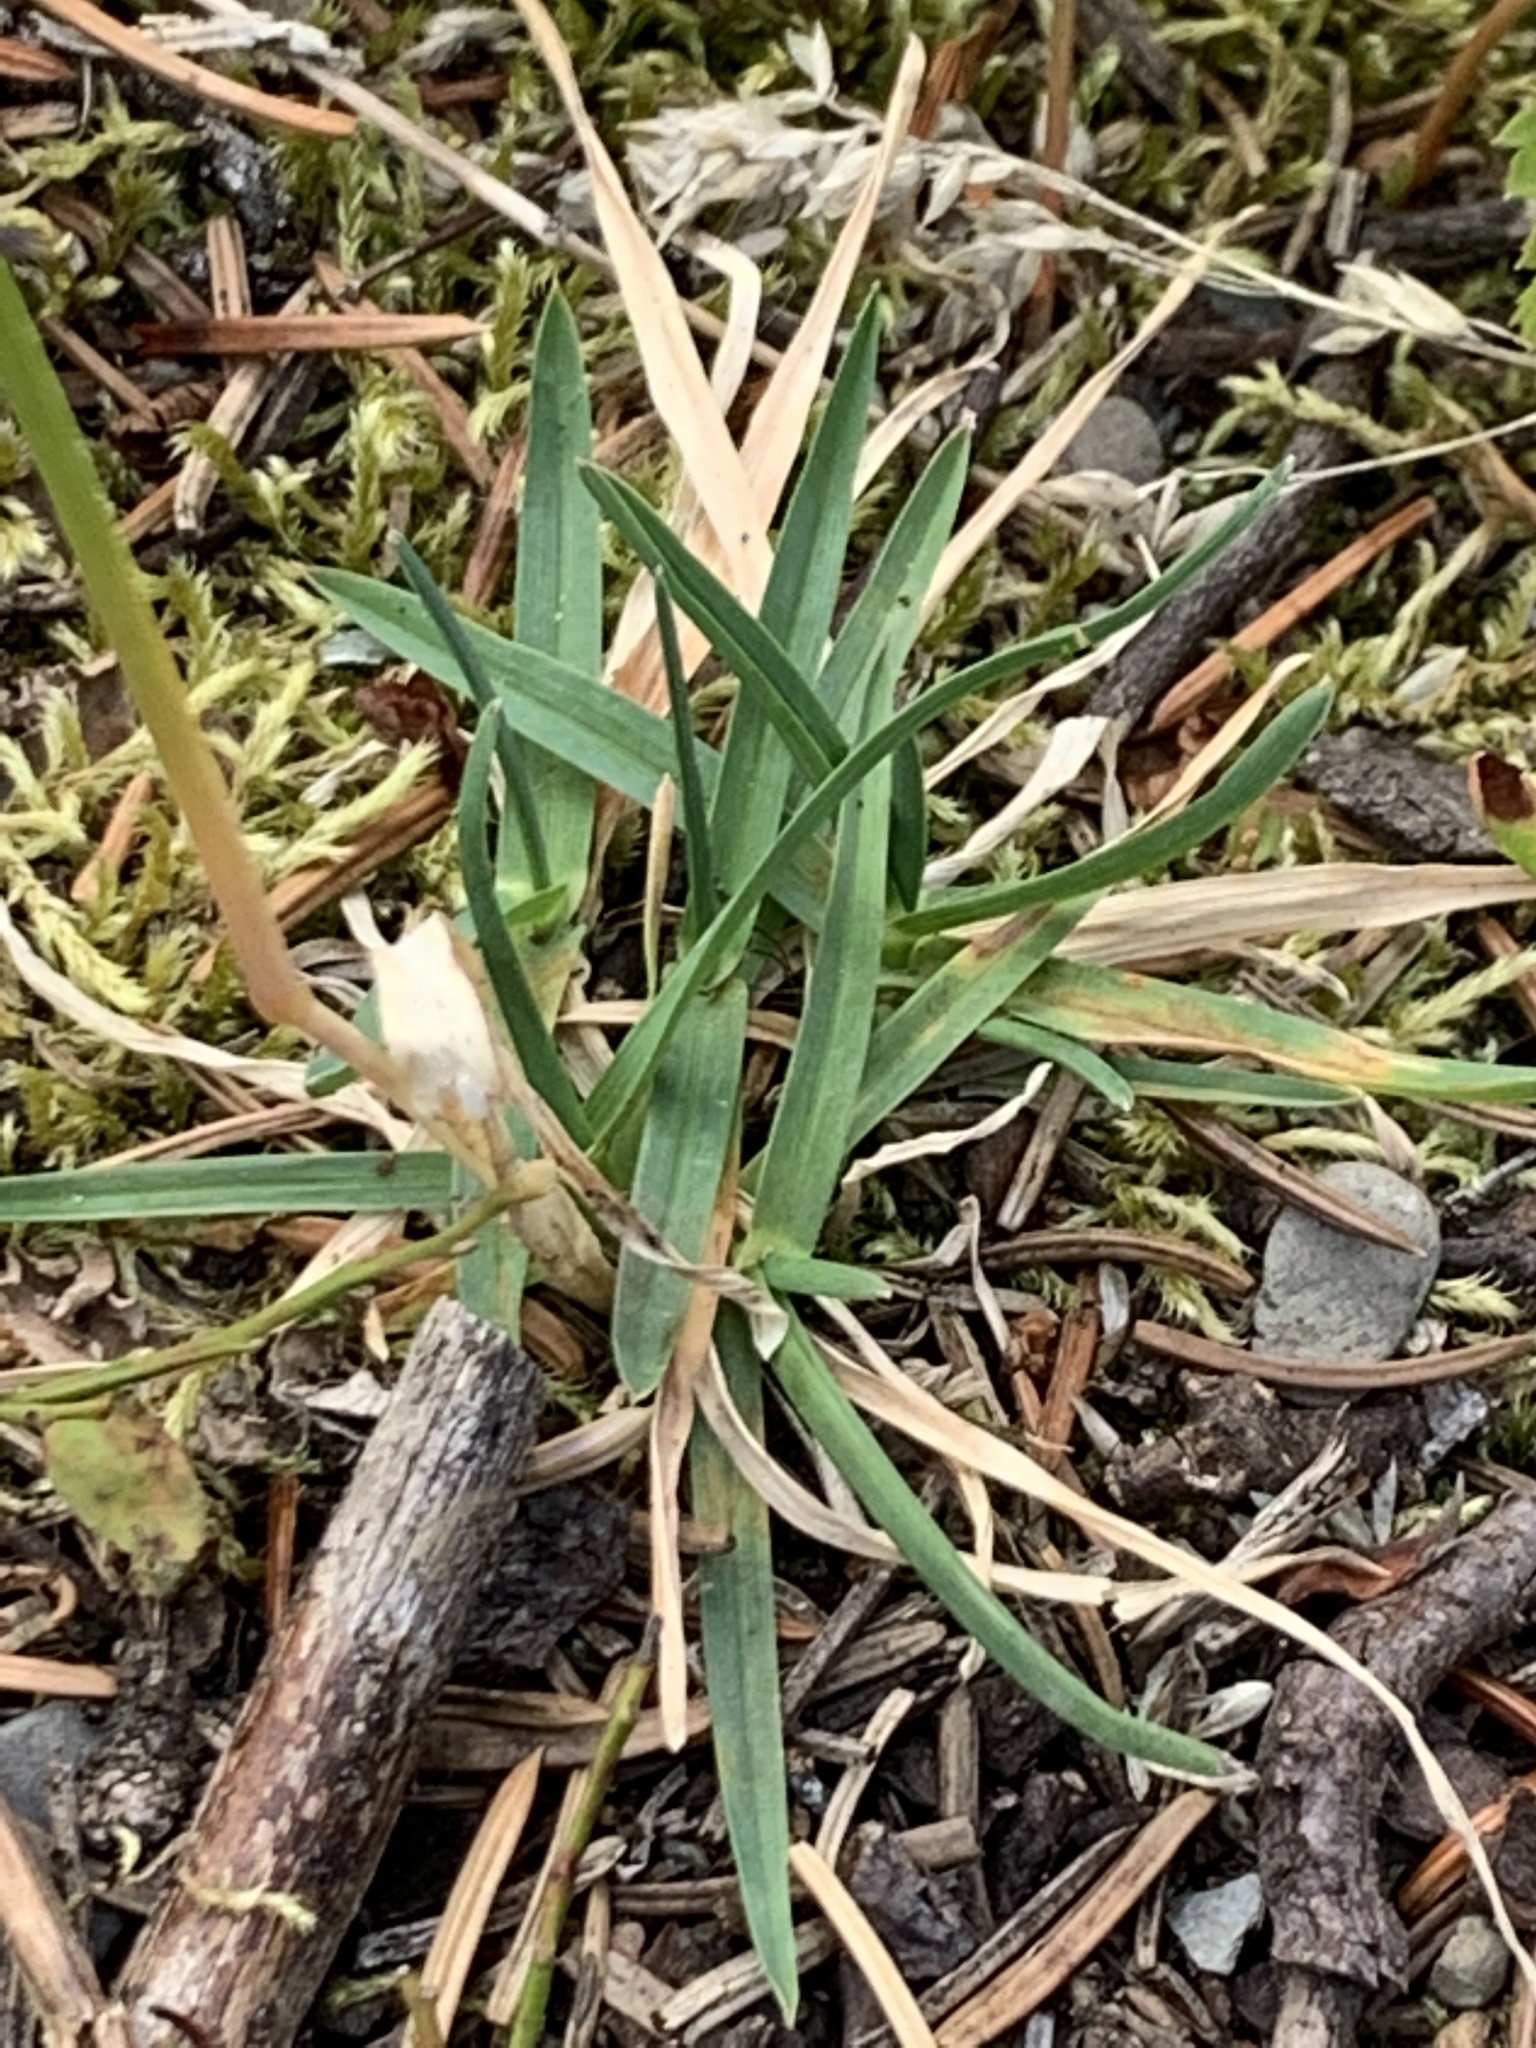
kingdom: Plantae
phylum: Tracheophyta
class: Liliopsida
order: Poales
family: Poaceae
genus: Poa
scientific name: Poa alpina
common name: Alpine bluegrass
